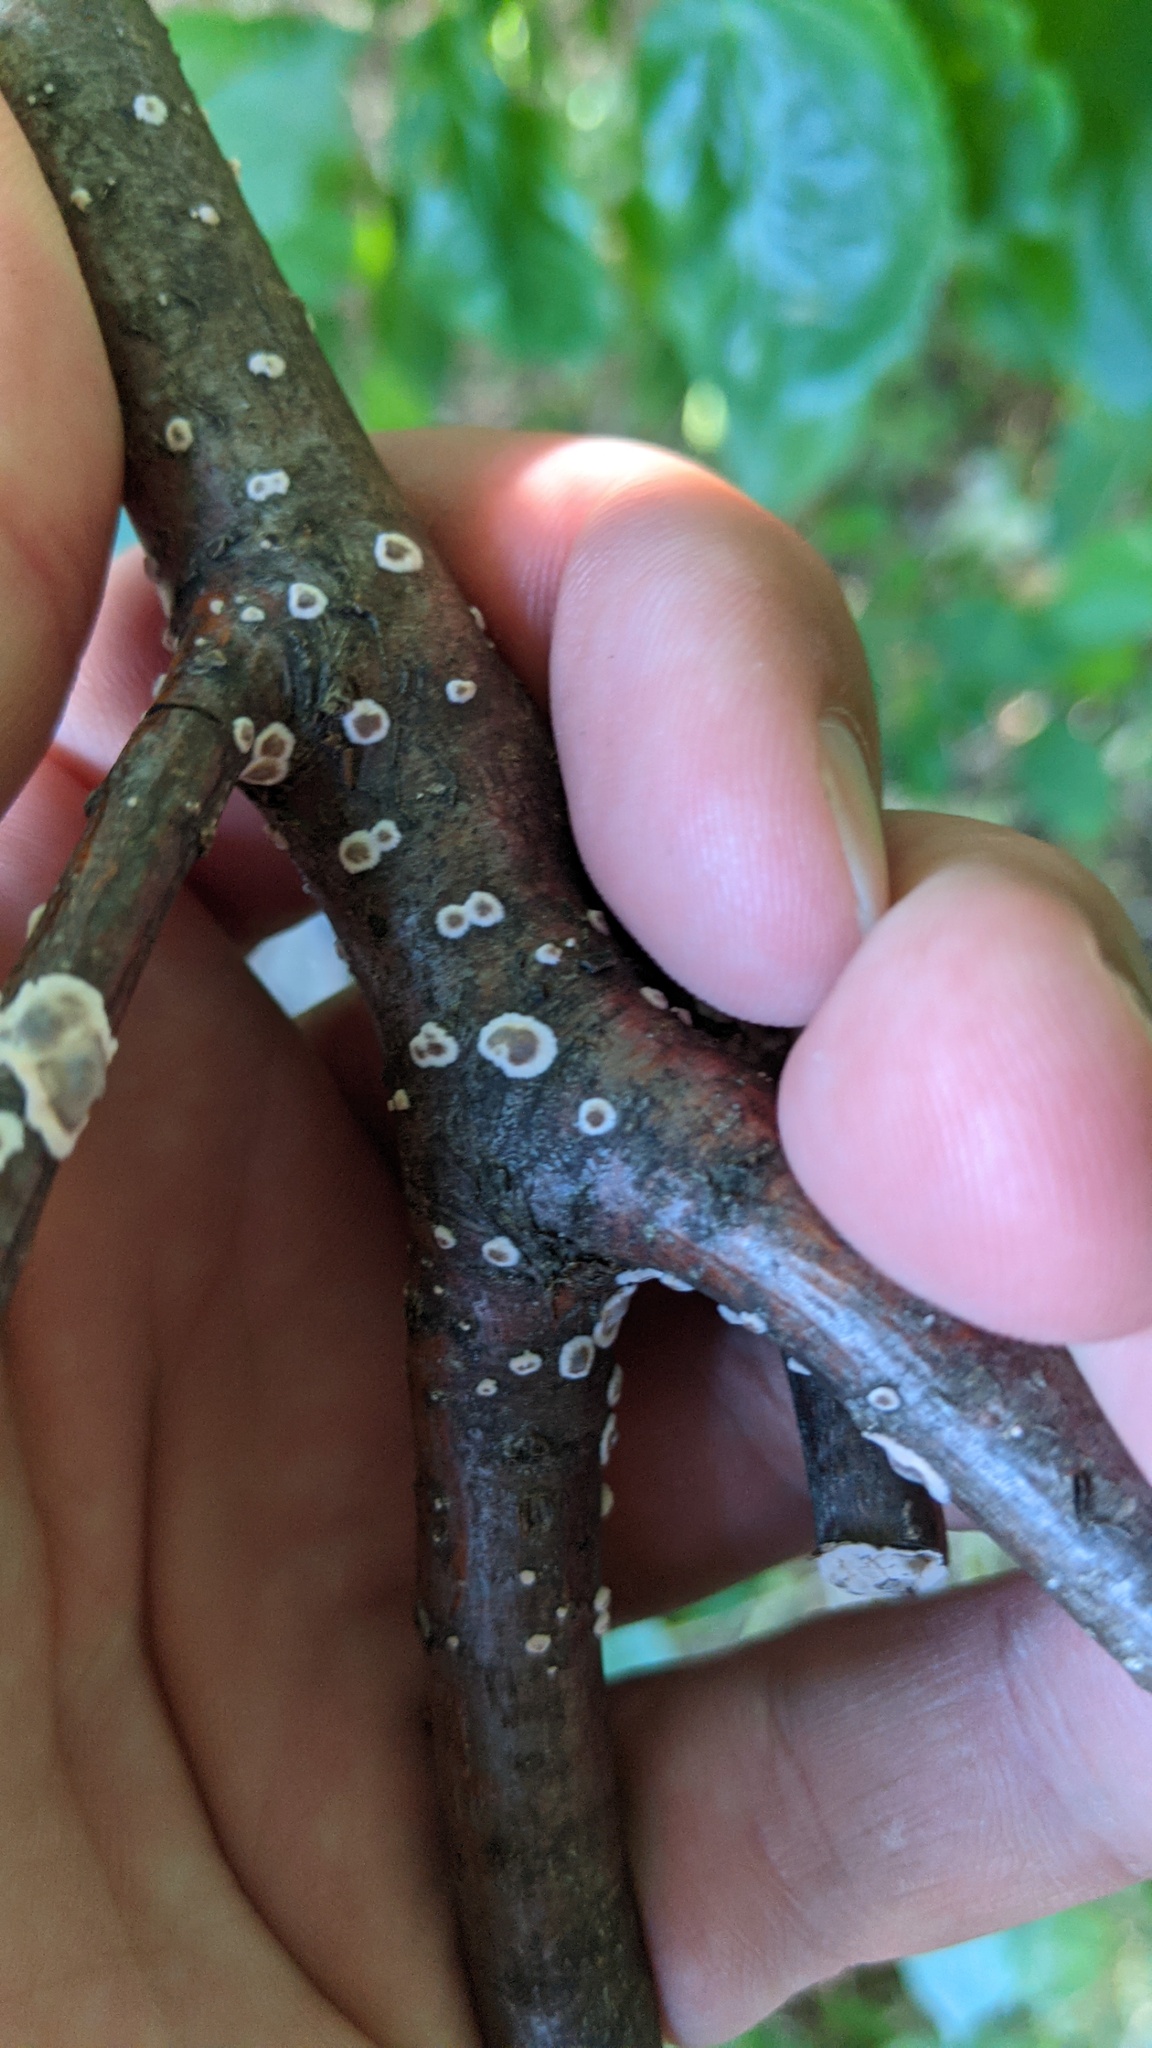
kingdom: Fungi
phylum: Basidiomycota
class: Agaricomycetes
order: Russulales
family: Peniophoraceae
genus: Peniophora
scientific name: Peniophora albobadia
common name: Giraffe spots
